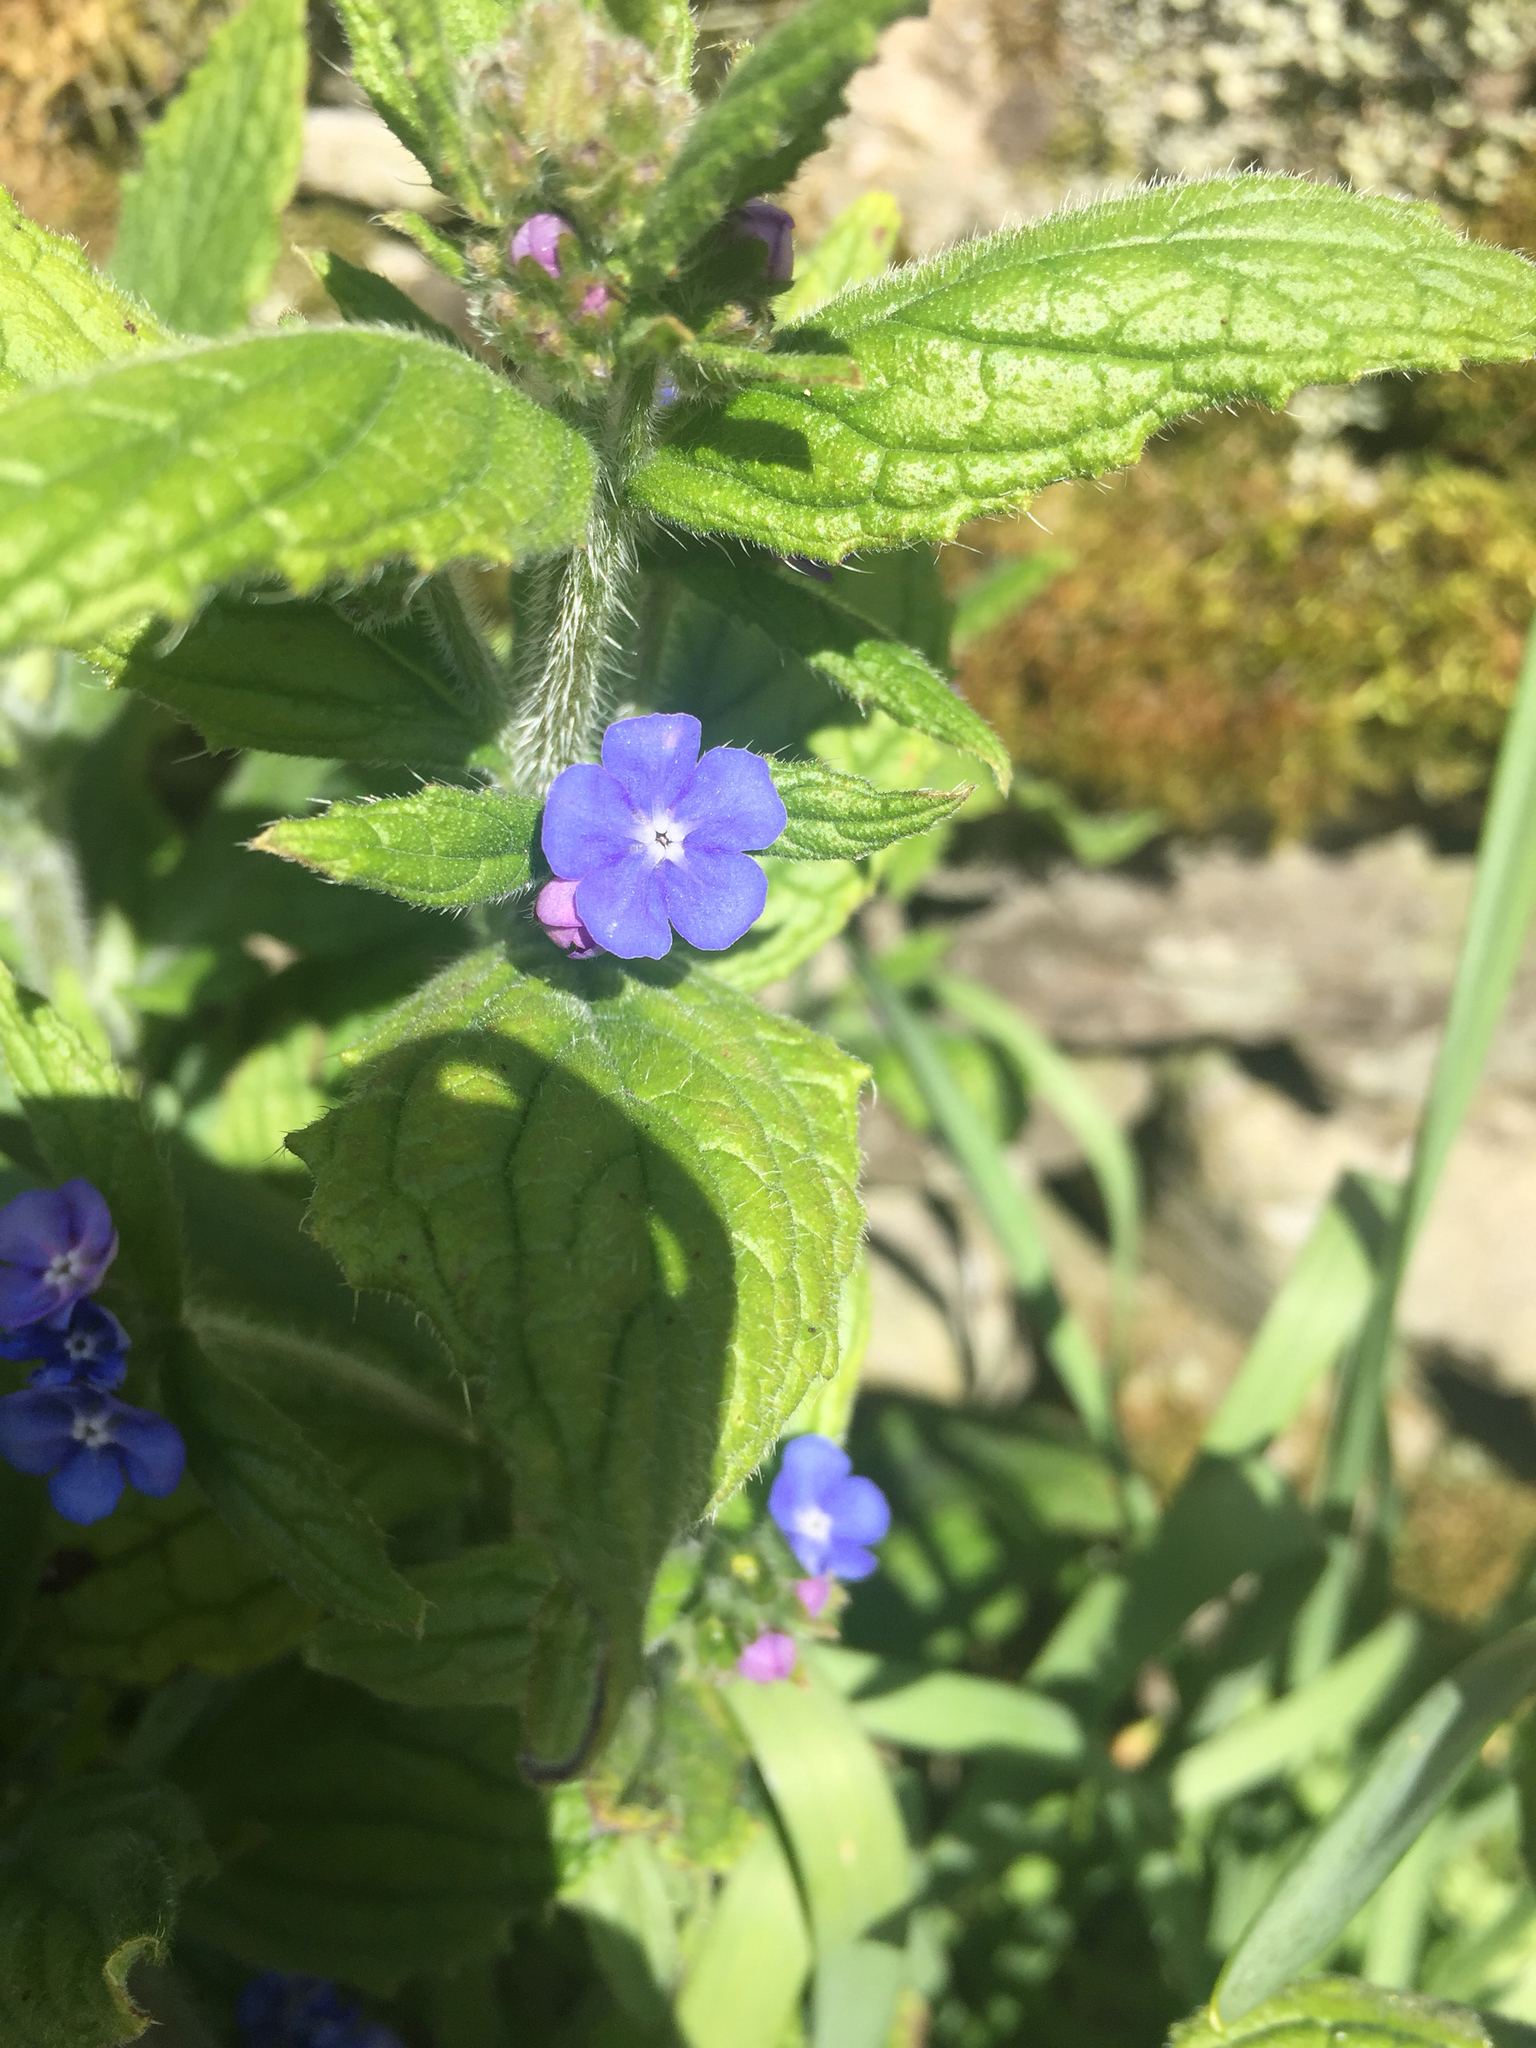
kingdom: Plantae
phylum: Tracheophyta
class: Magnoliopsida
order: Boraginales
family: Boraginaceae
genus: Pentaglottis
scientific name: Pentaglottis sempervirens
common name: Green alkanet
